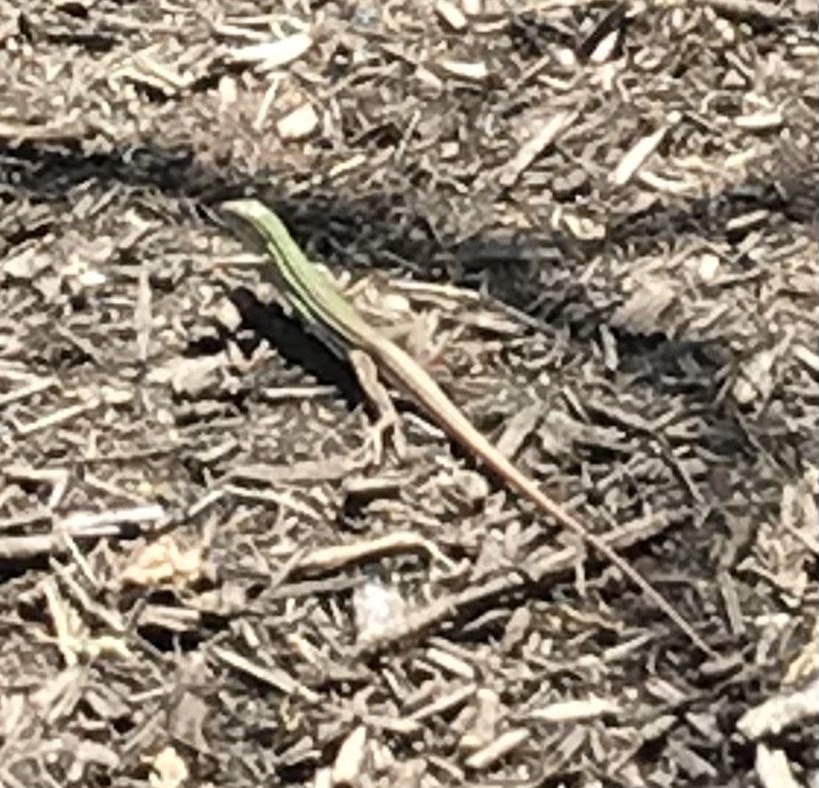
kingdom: Animalia
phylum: Chordata
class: Squamata
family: Teiidae
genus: Aspidoscelis
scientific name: Aspidoscelis gularis
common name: Eastern spotted whiptail
